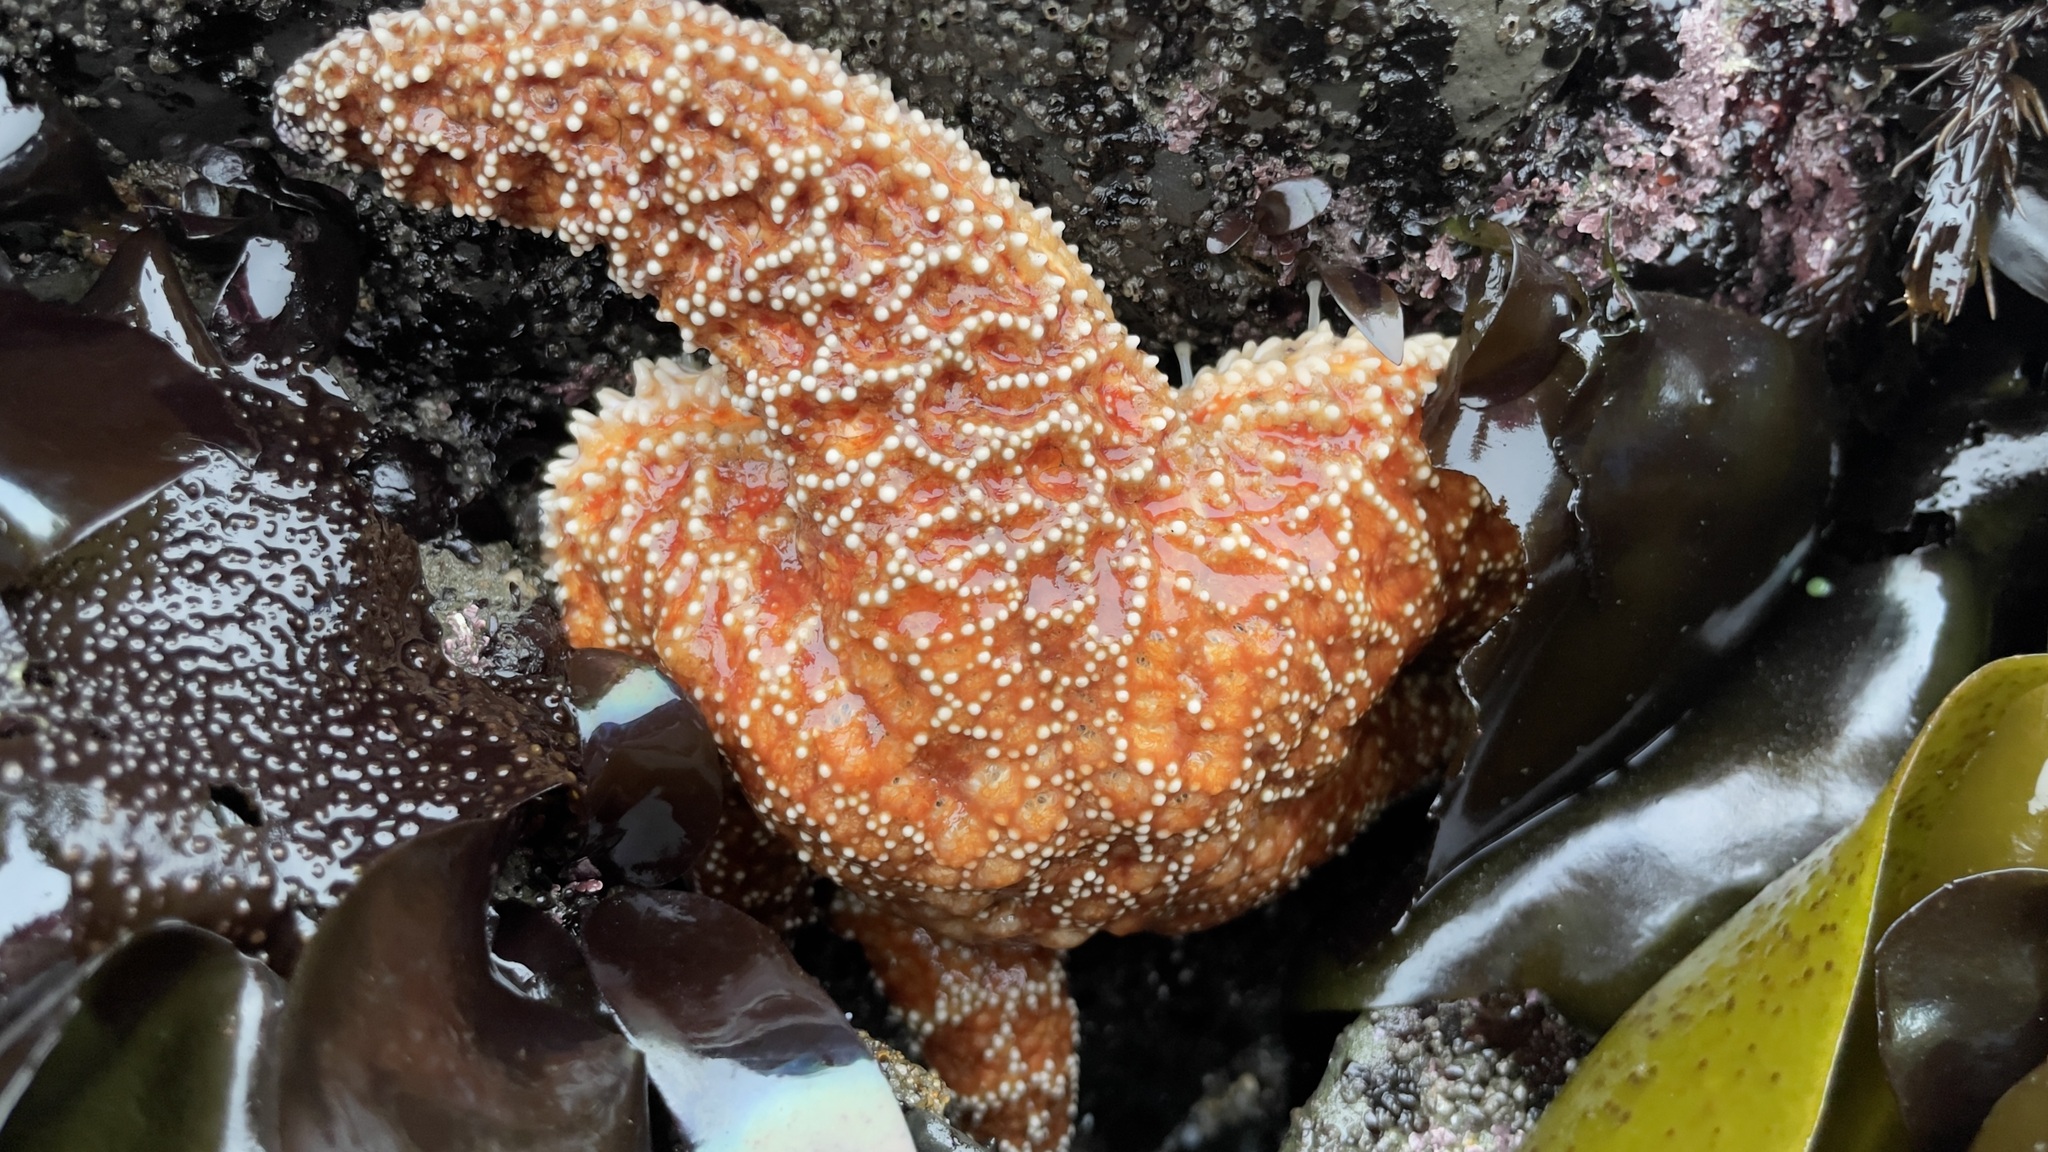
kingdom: Animalia
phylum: Echinodermata
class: Asteroidea
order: Forcipulatida
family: Asteriidae
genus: Pisaster
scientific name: Pisaster ochraceus
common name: Ochre stars
